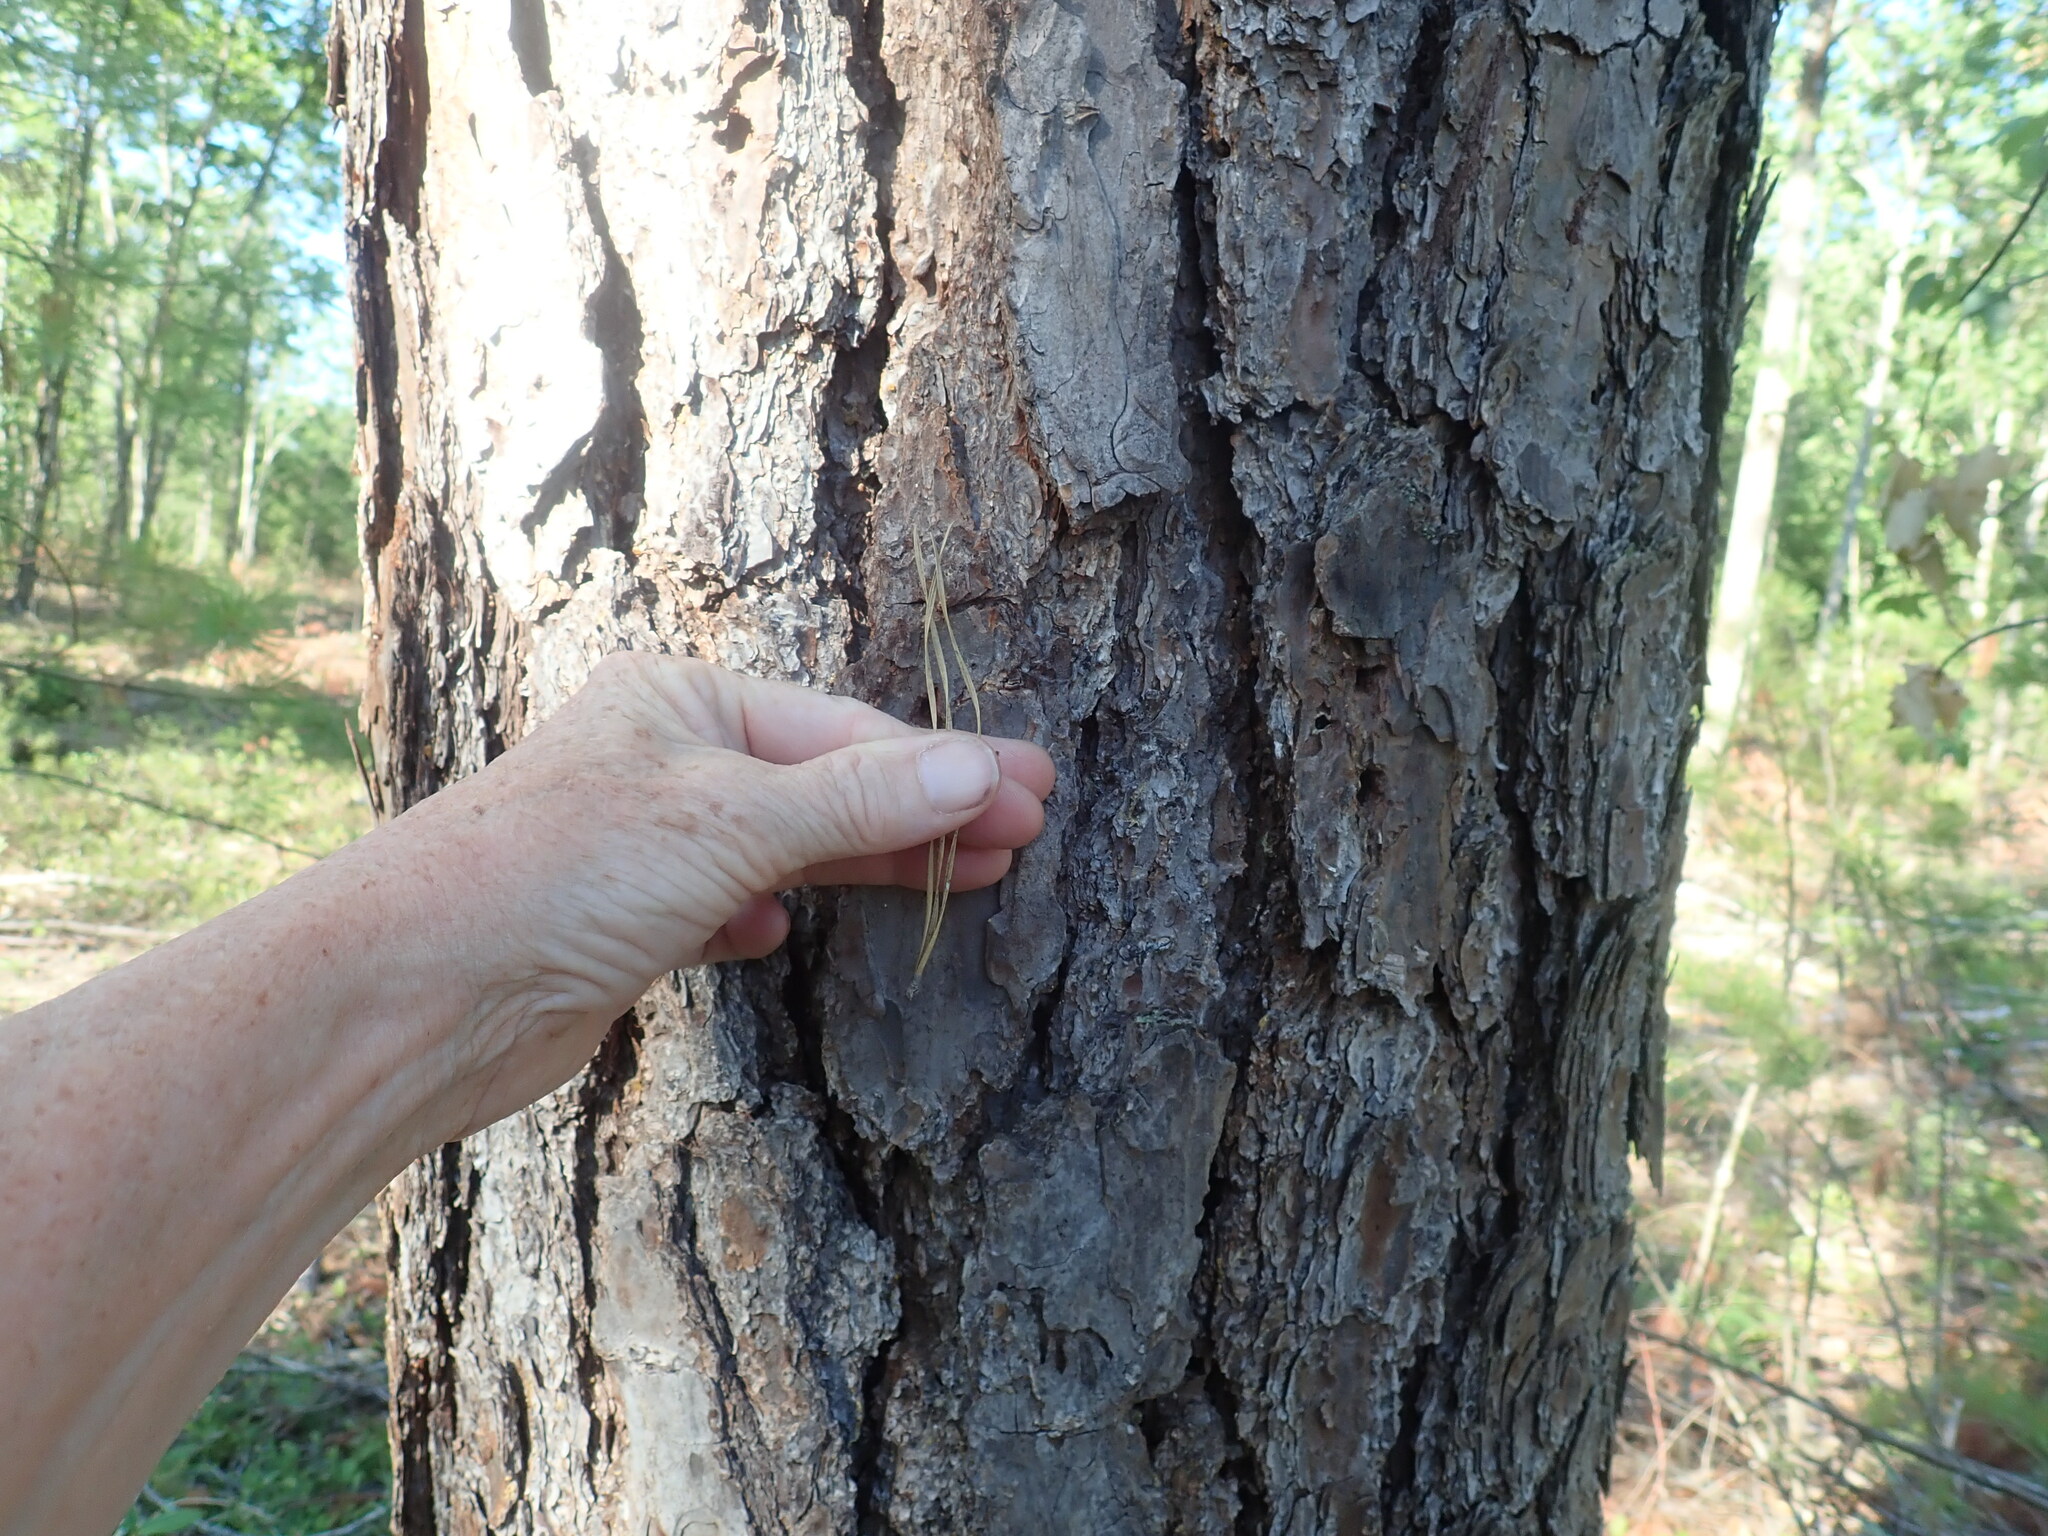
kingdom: Plantae
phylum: Tracheophyta
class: Pinopsida
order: Pinales
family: Pinaceae
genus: Pinus
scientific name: Pinus rigida
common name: Pitch pine
